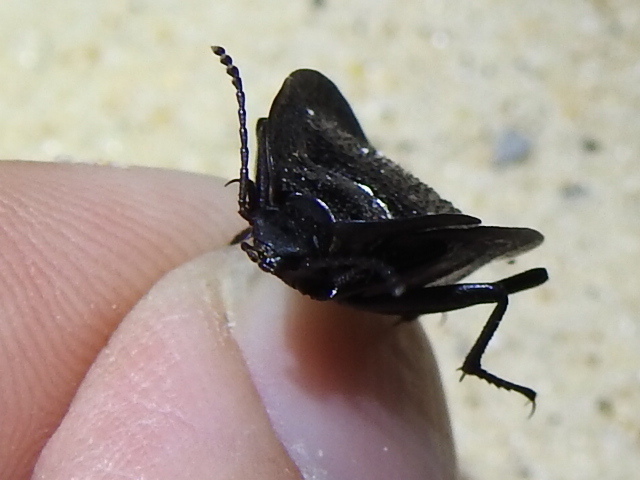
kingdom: Animalia
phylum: Arthropoda
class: Insecta
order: Coleoptera
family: Tenebrionidae
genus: Embaphion
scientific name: Embaphion muricatum
